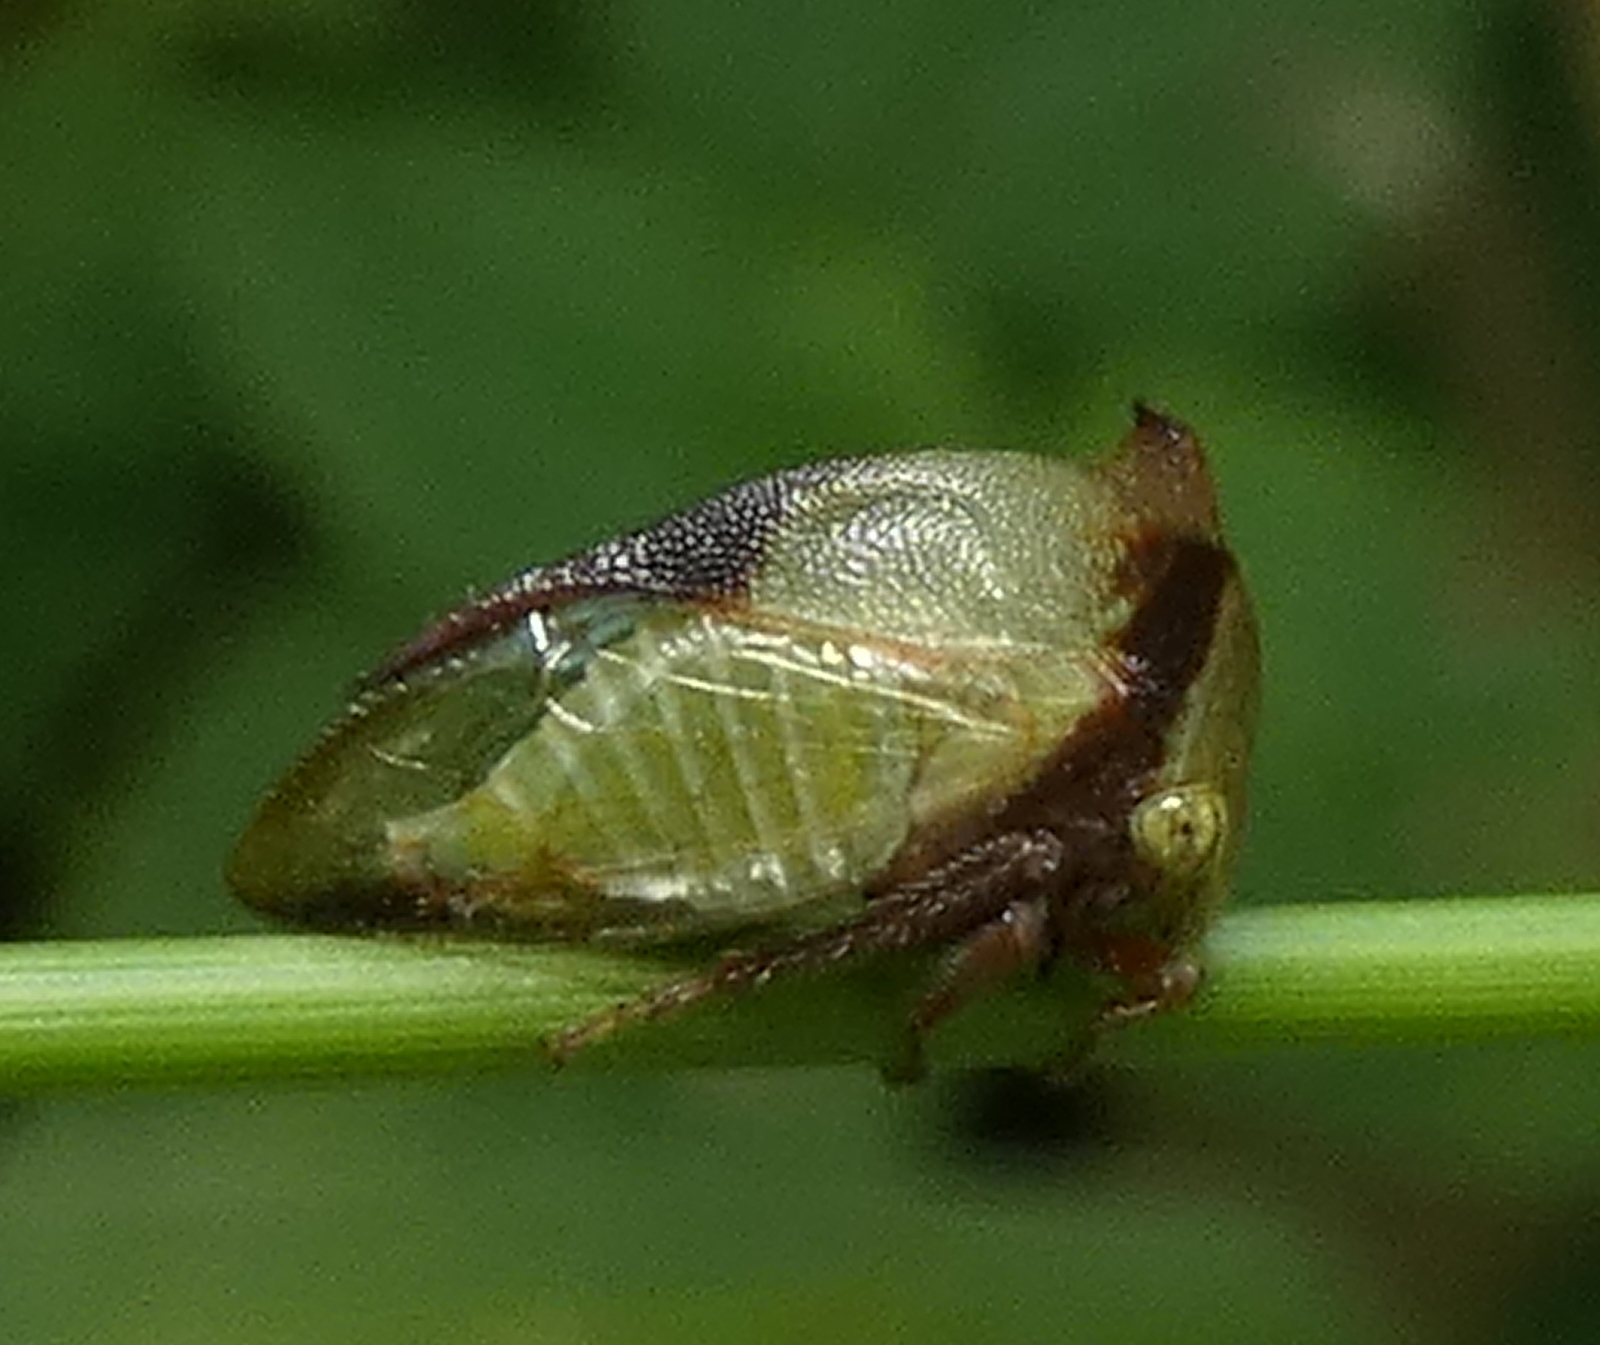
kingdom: Animalia
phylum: Arthropoda
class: Insecta
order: Hemiptera
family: Membracidae
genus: Ceresa
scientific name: Ceresa ustulata
